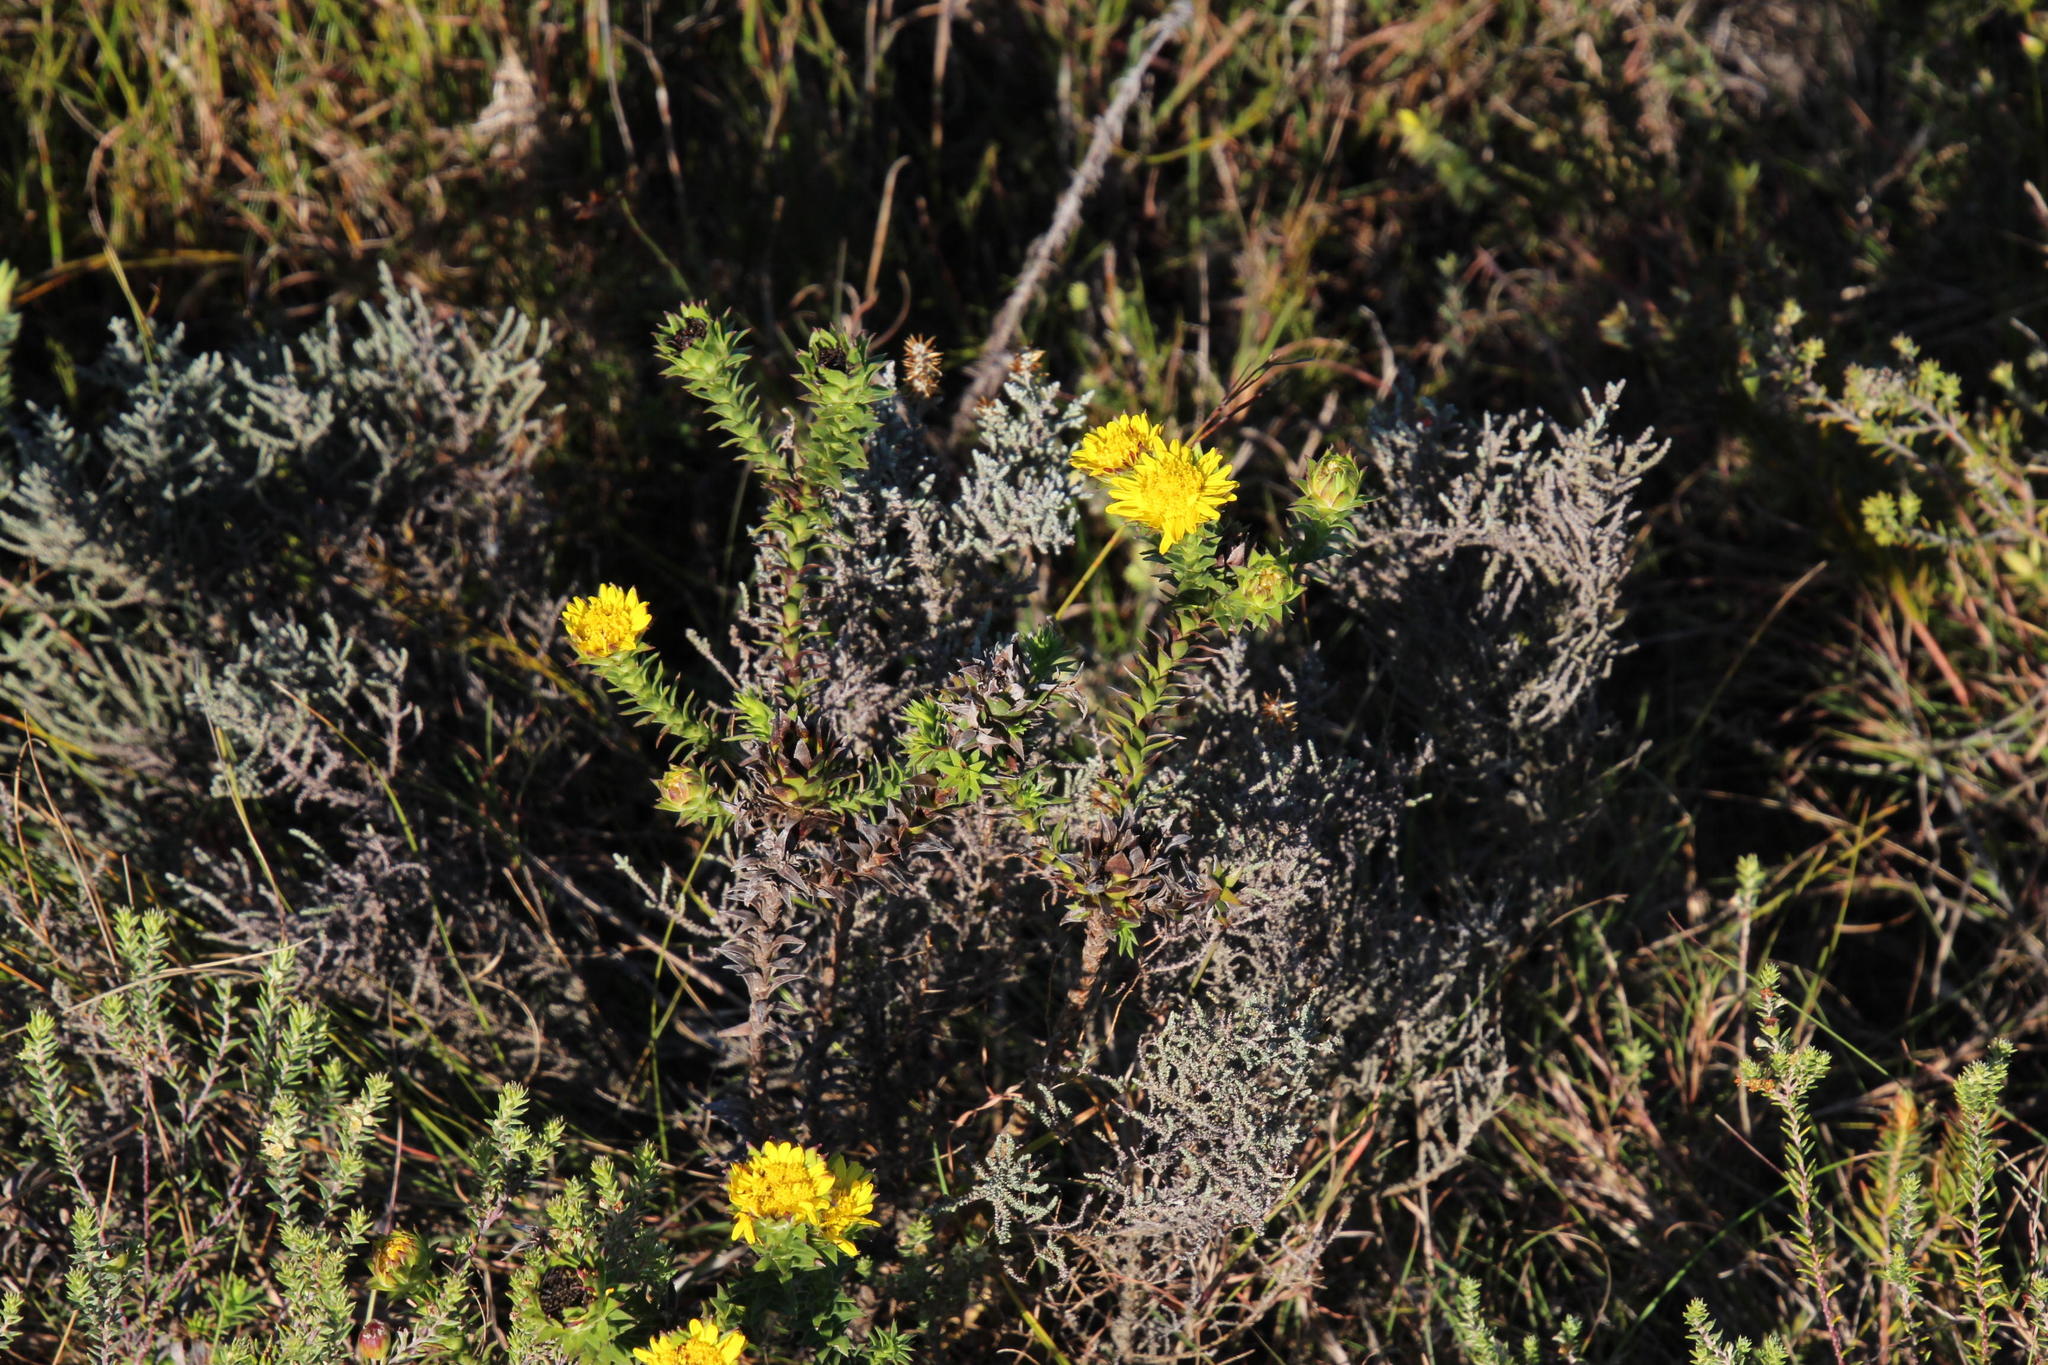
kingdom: Plantae
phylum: Tracheophyta
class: Magnoliopsida
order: Asterales
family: Asteraceae
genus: Oedera
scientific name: Oedera imbricata
